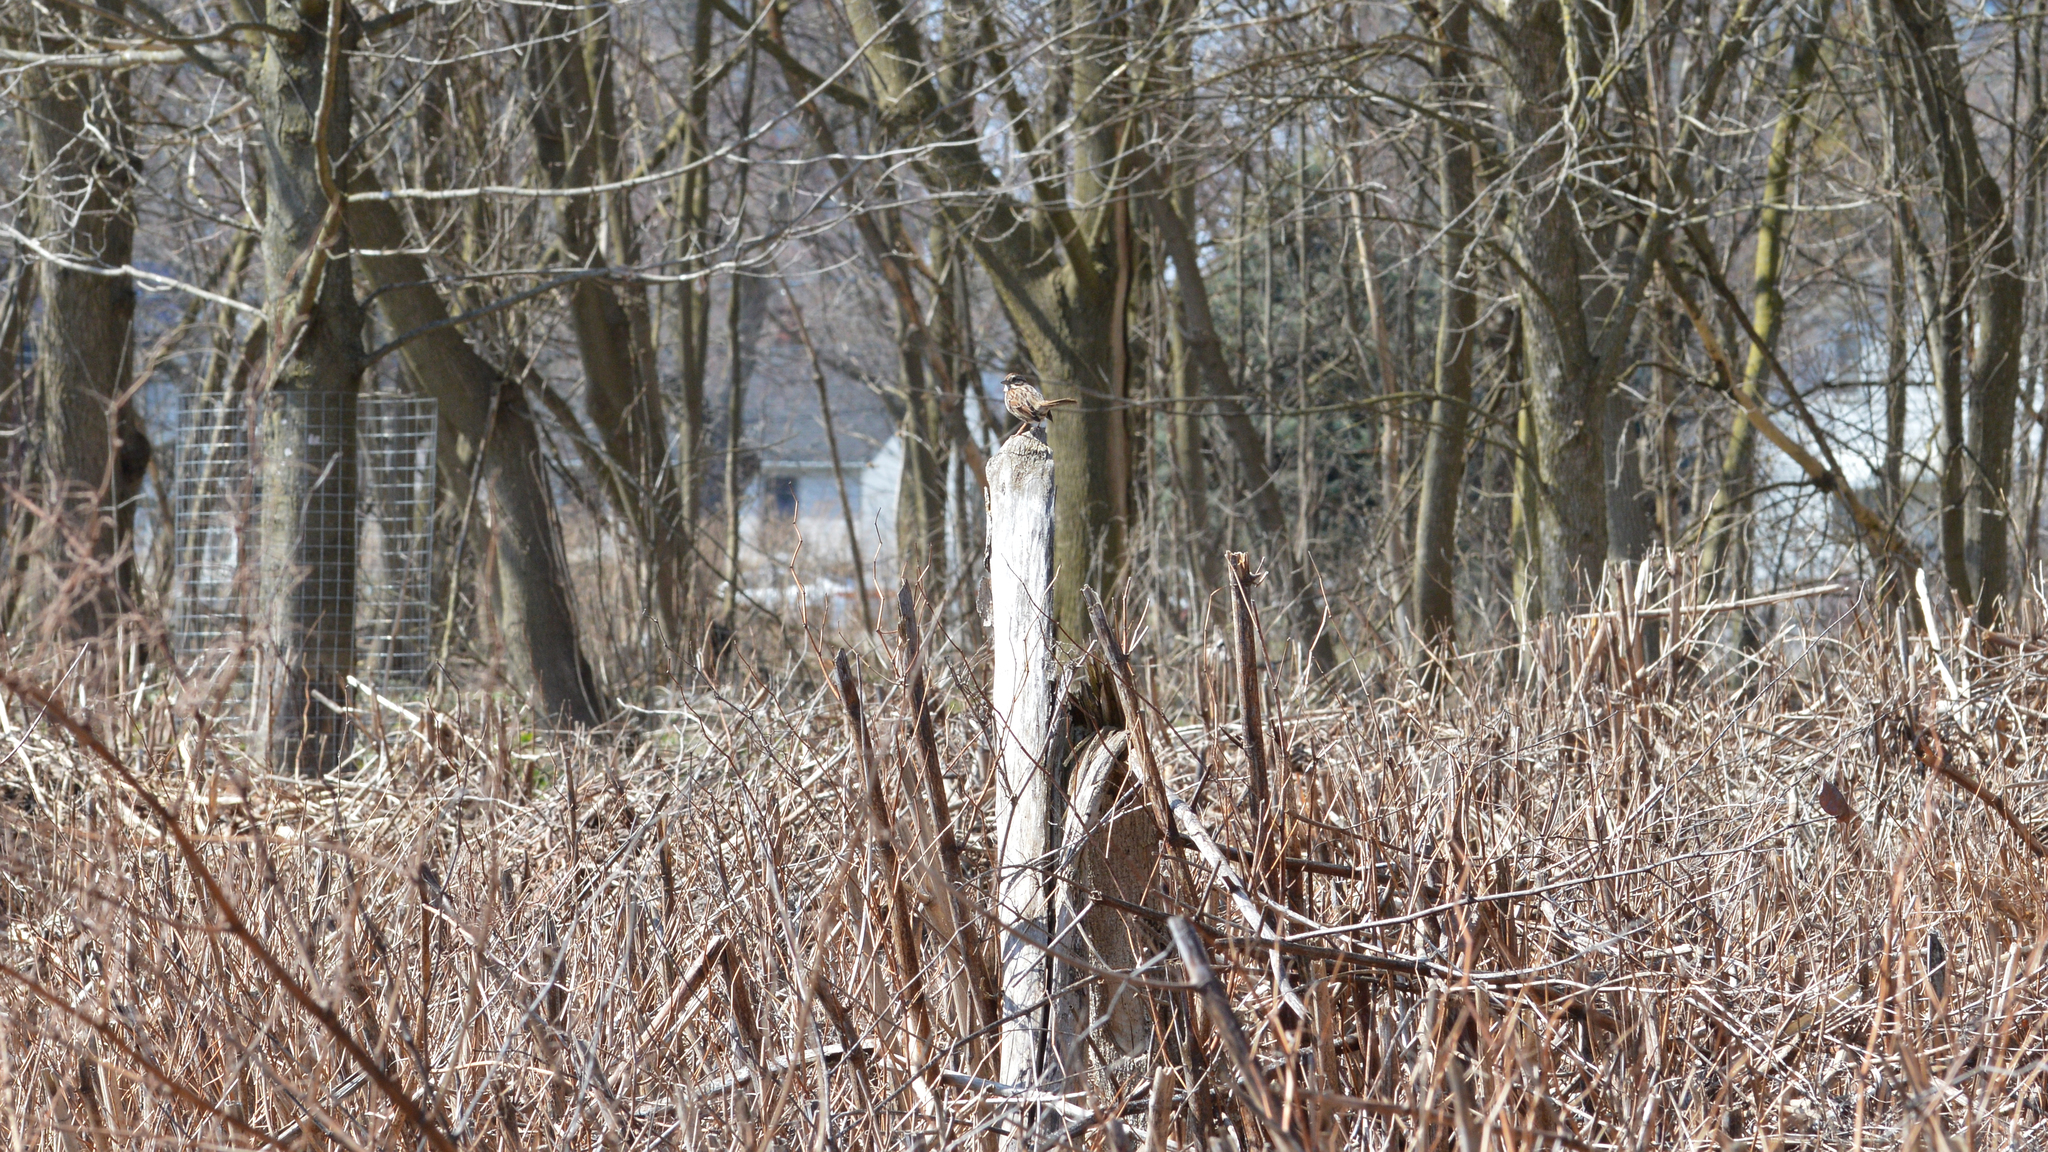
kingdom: Animalia
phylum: Chordata
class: Aves
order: Passeriformes
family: Passerellidae
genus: Melospiza
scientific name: Melospiza melodia
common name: Song sparrow
